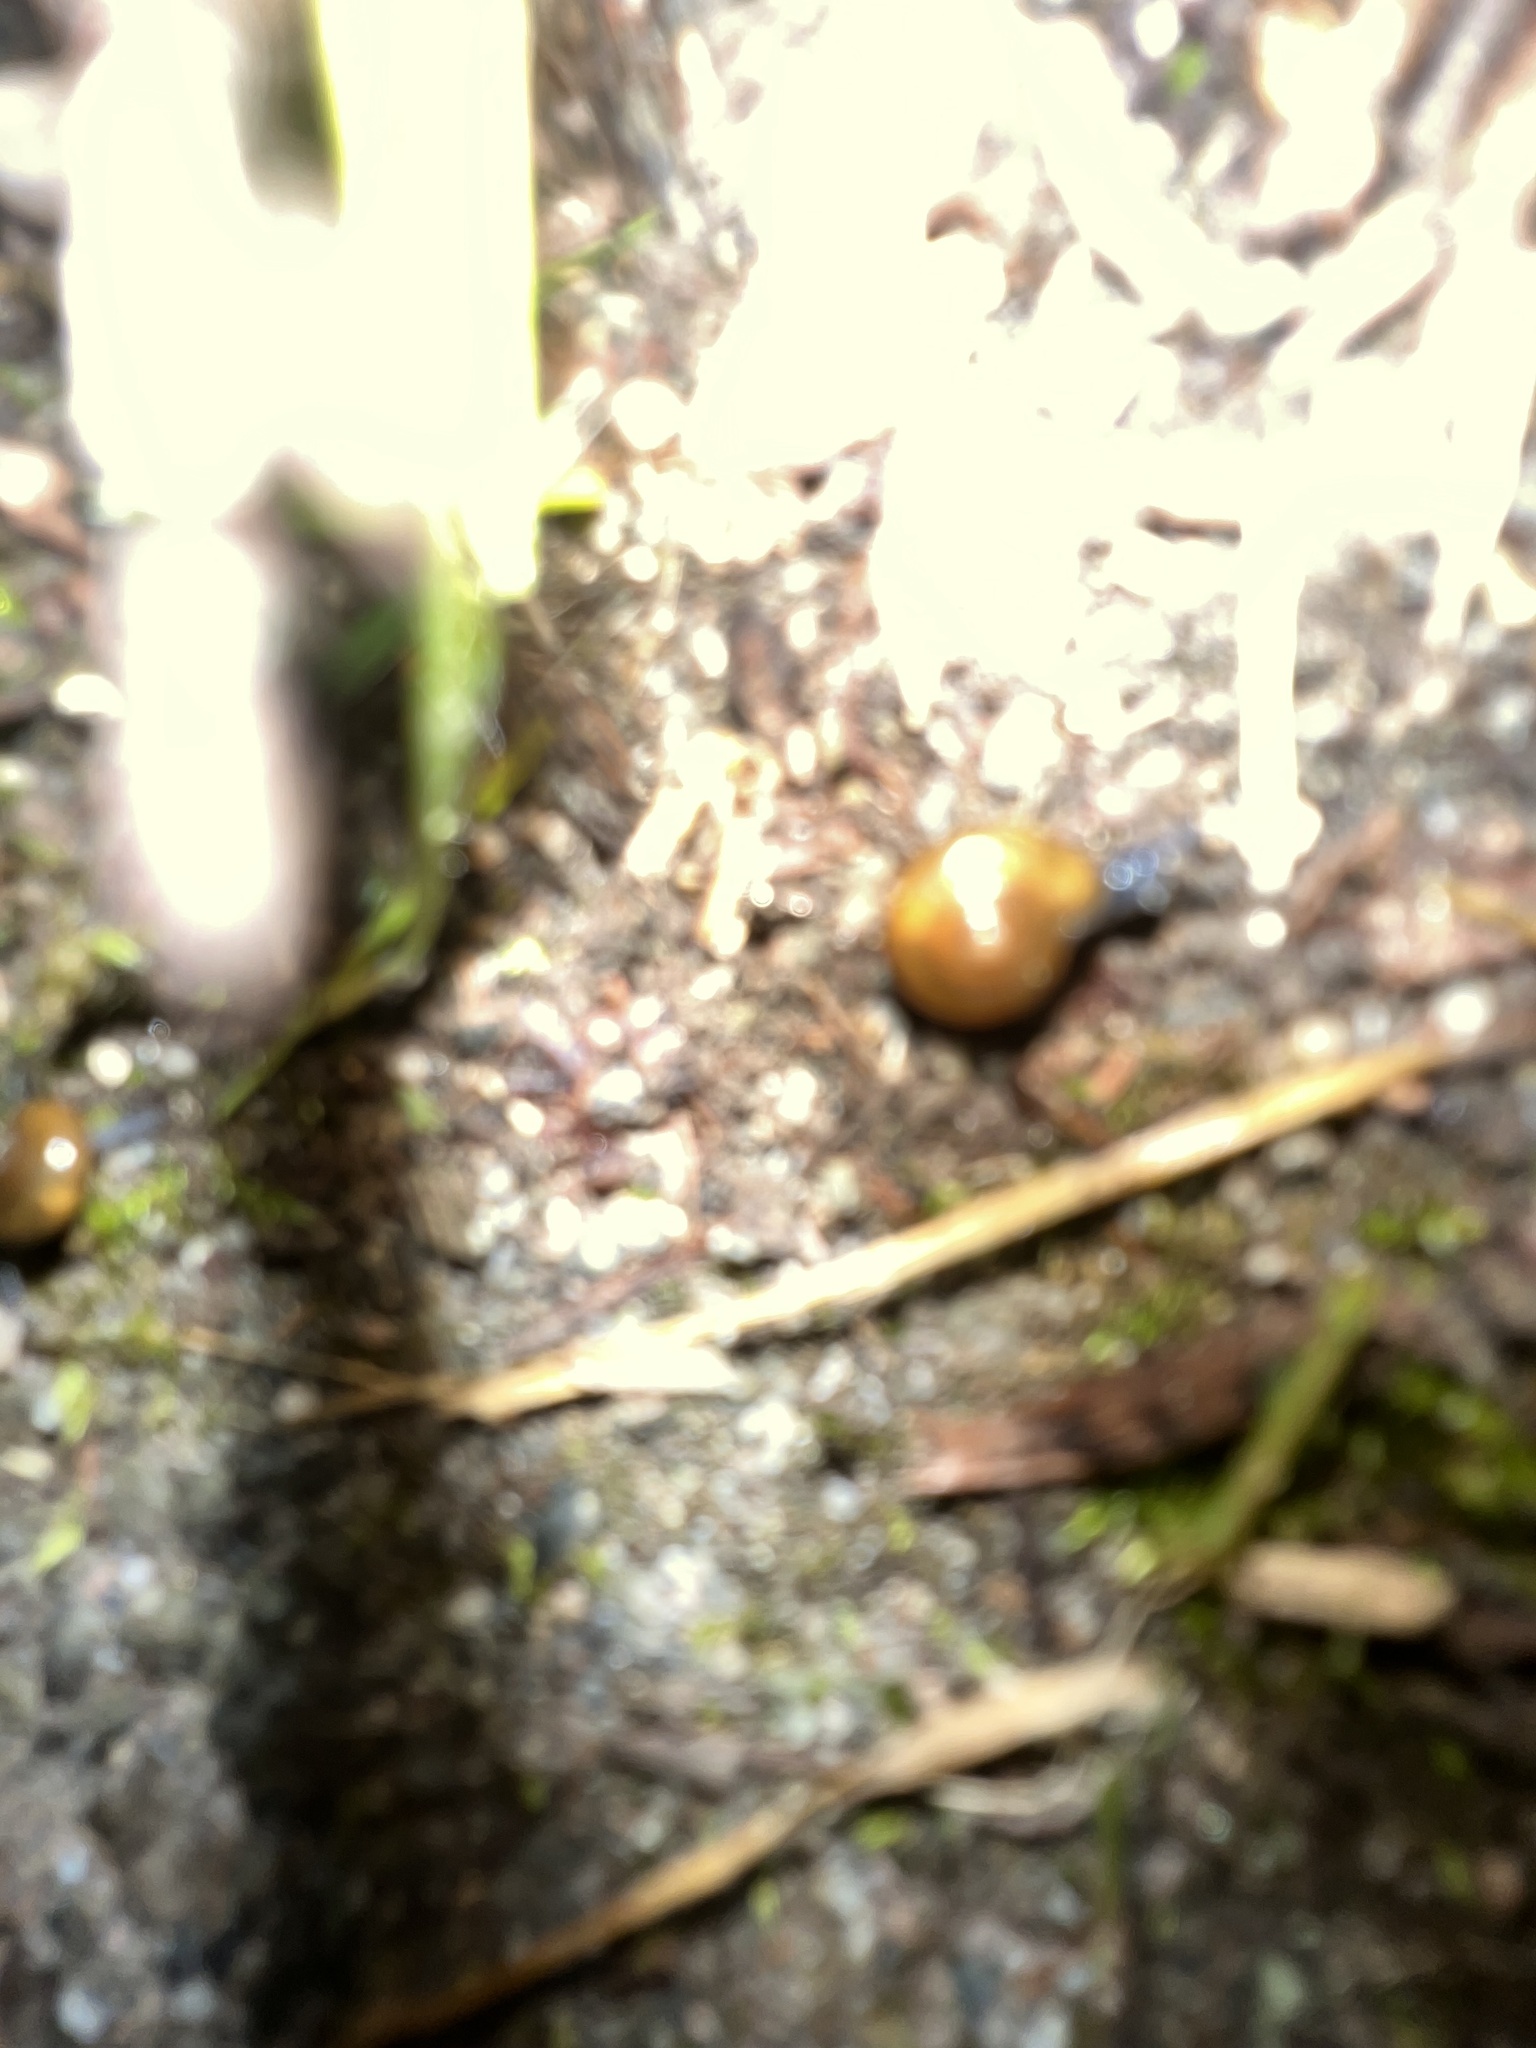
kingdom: Animalia
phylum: Mollusca
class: Gastropoda
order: Stylommatophora
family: Oxychilidae
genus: Oxychilus
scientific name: Oxychilus draparnaudi
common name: Draparnaud's glass snail
